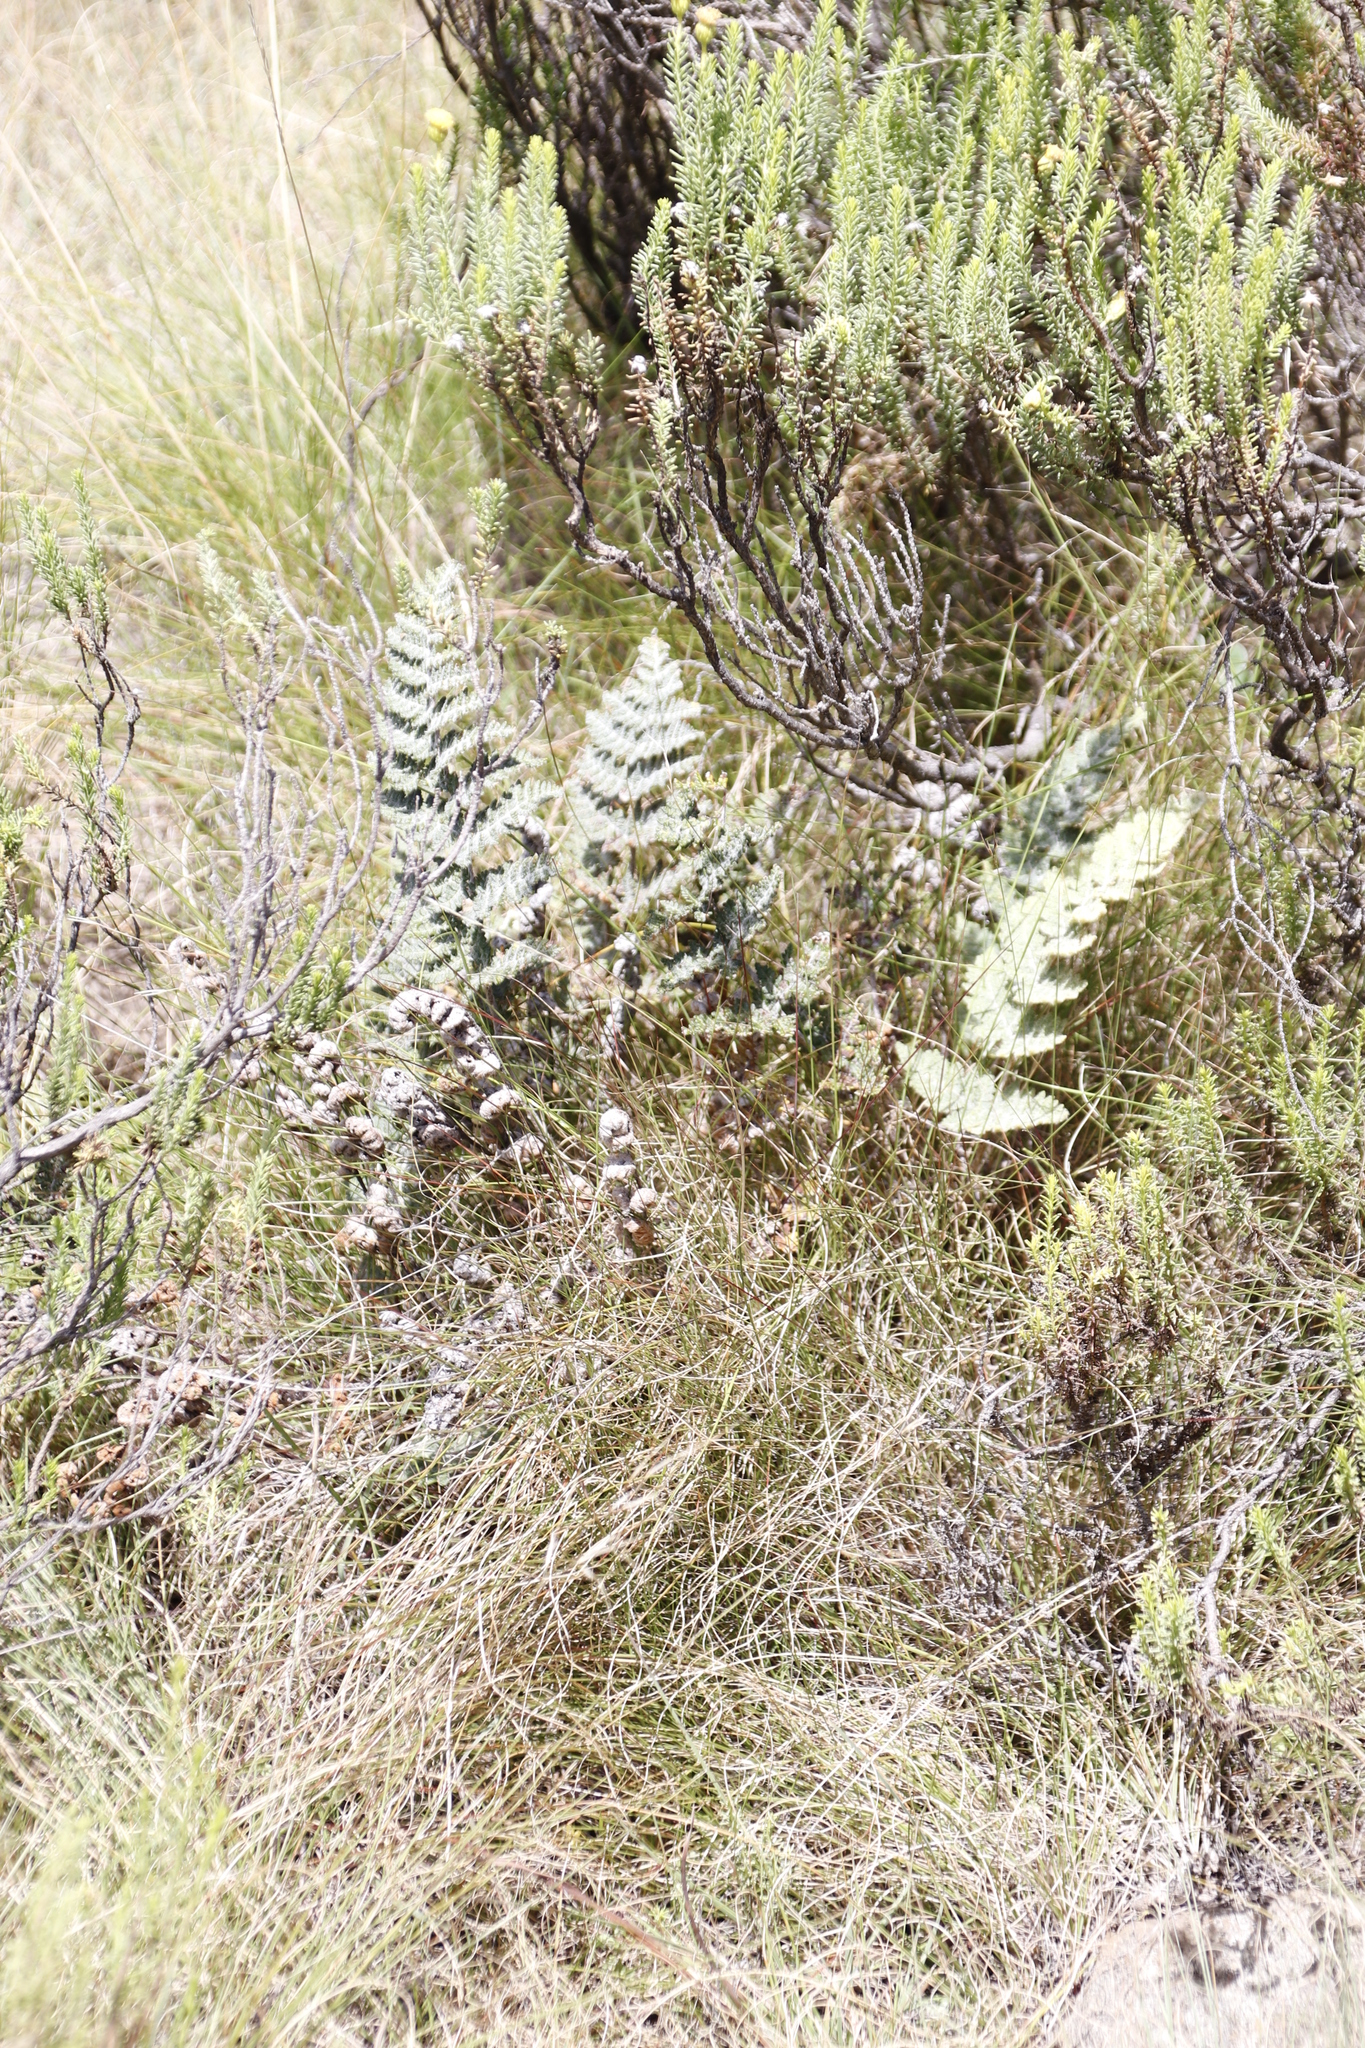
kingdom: Plantae
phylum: Tracheophyta
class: Polypodiopsida
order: Polypodiales
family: Pteridaceae
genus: Cheilanthes
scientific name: Cheilanthes eckloniana
